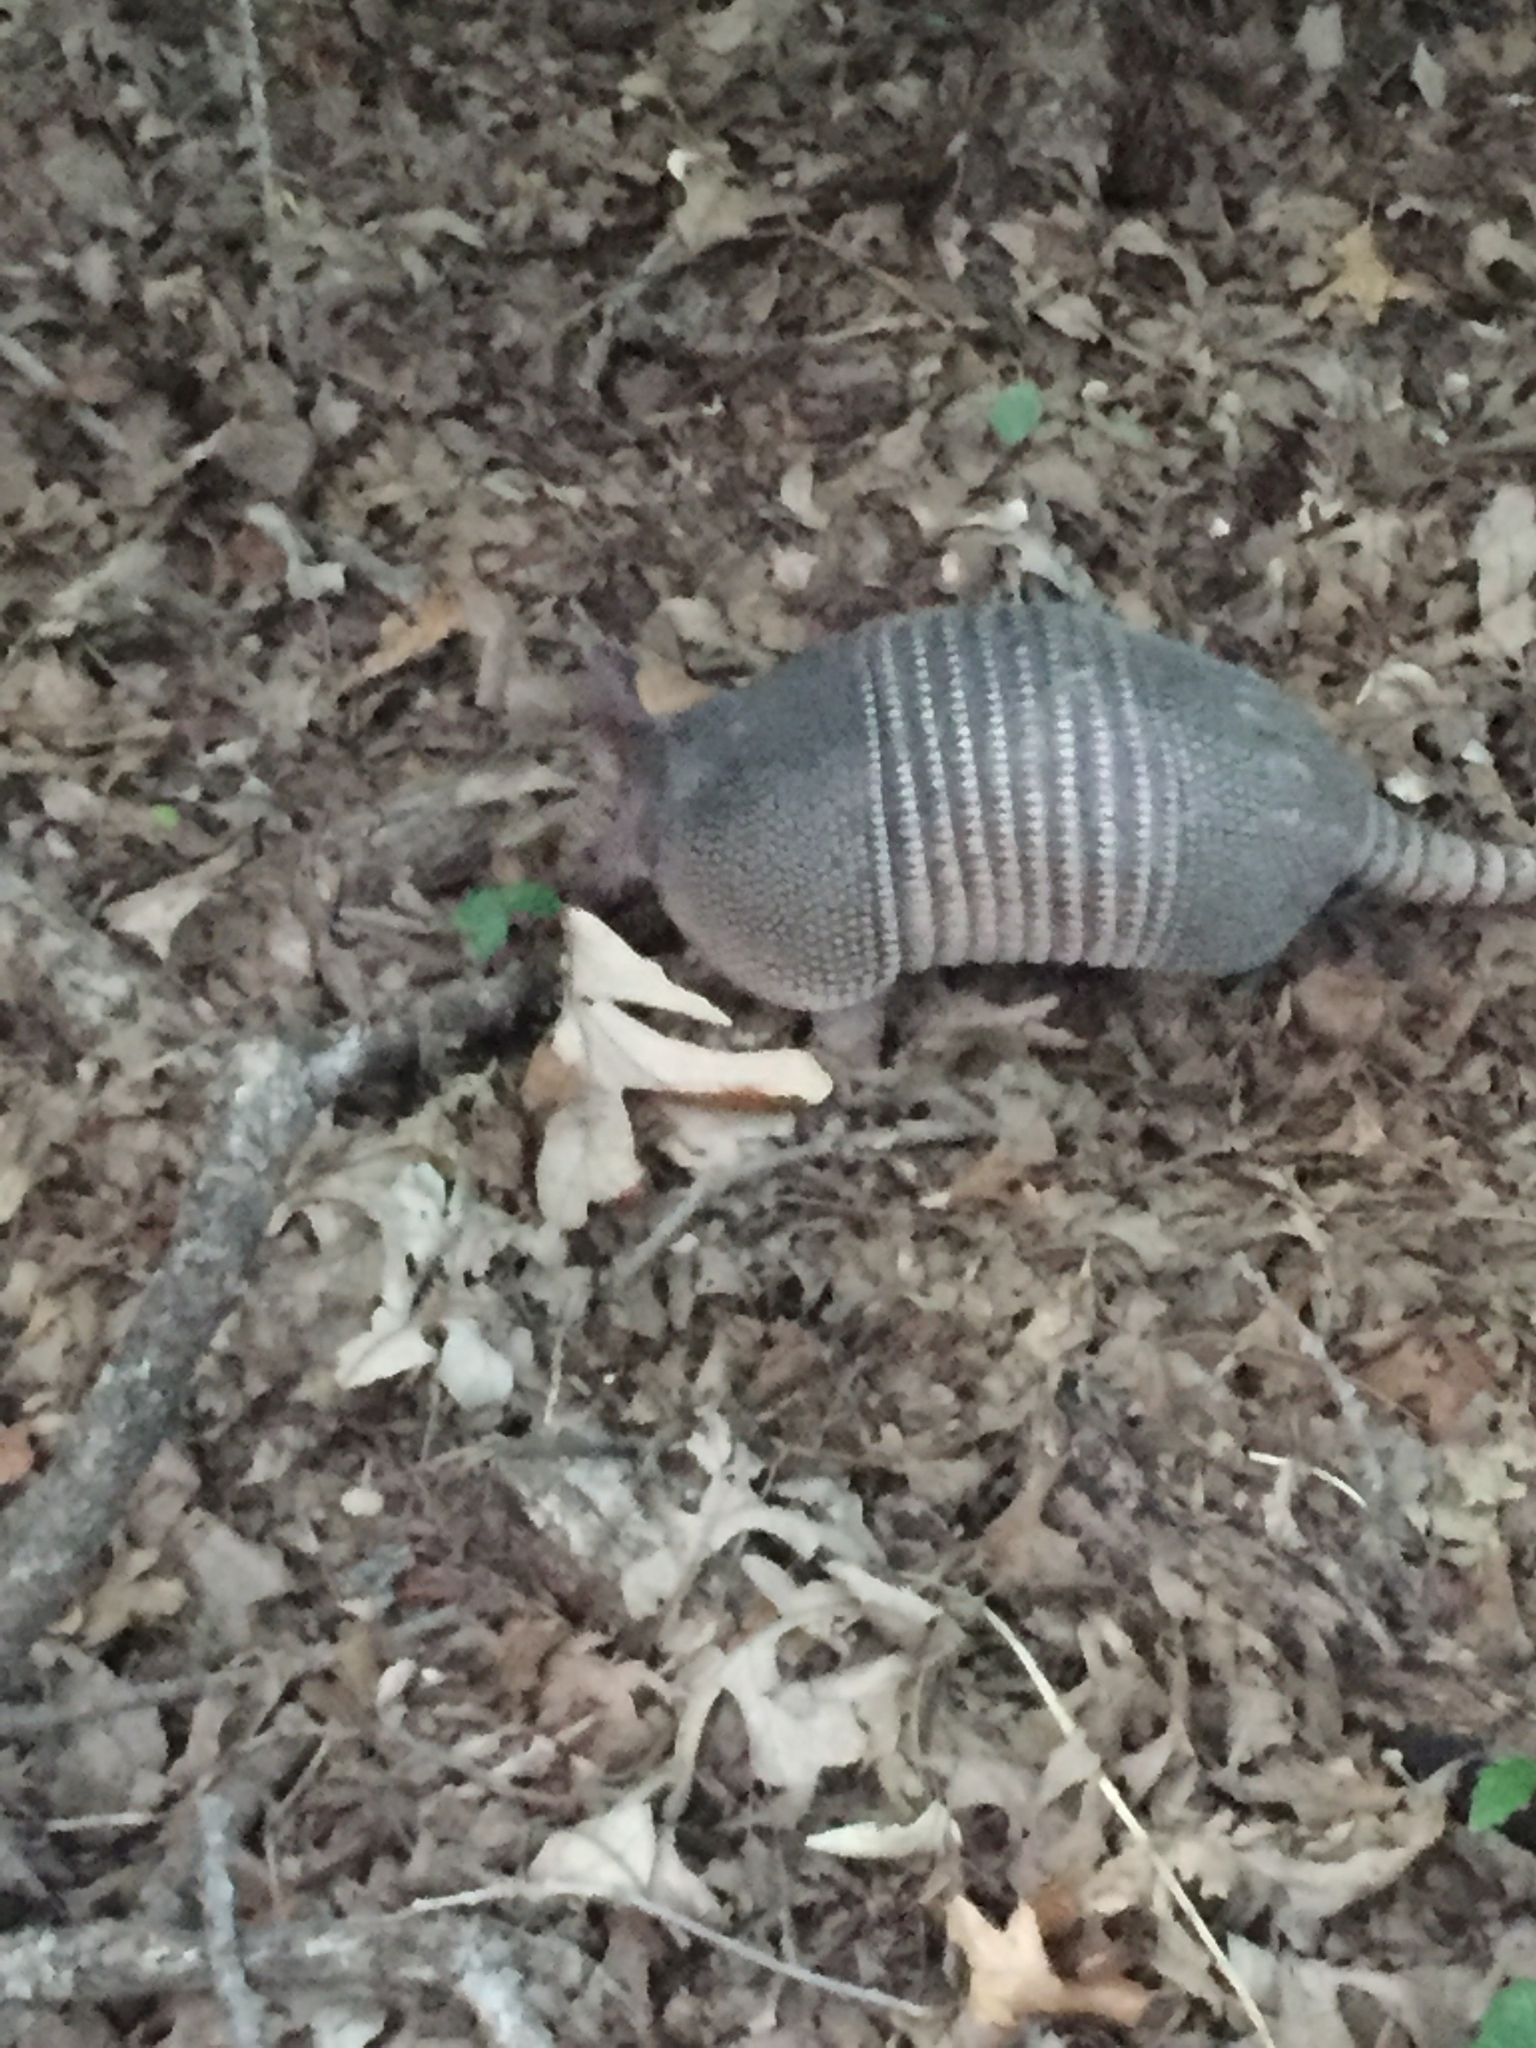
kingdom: Animalia
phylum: Chordata
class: Mammalia
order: Cingulata
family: Dasypodidae
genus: Dasypus
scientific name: Dasypus novemcinctus
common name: Nine-banded armadillo
